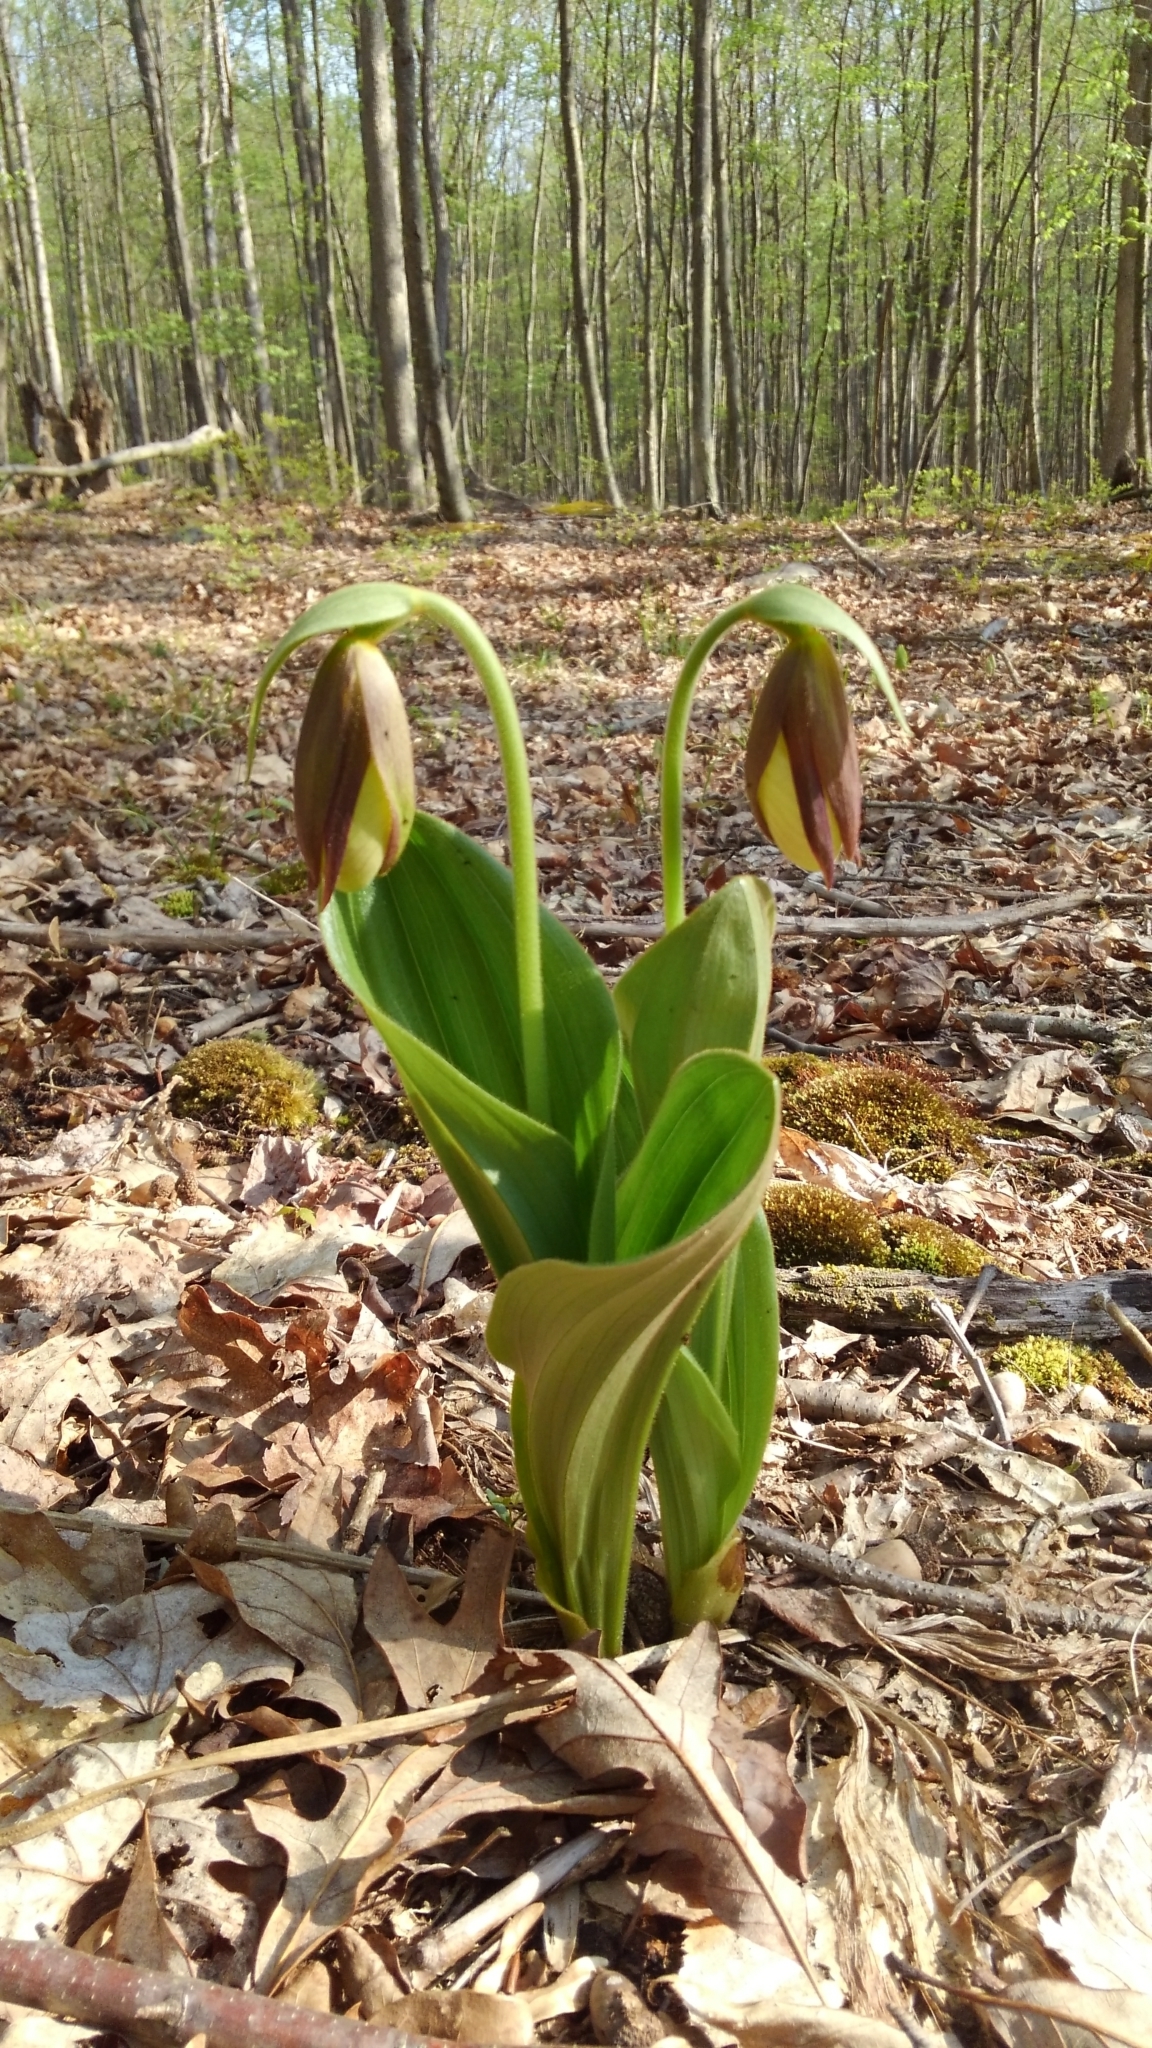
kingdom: Plantae
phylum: Tracheophyta
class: Liliopsida
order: Asparagales
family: Orchidaceae
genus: Cypripedium
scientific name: Cypripedium acaule
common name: Pink lady's-slipper
